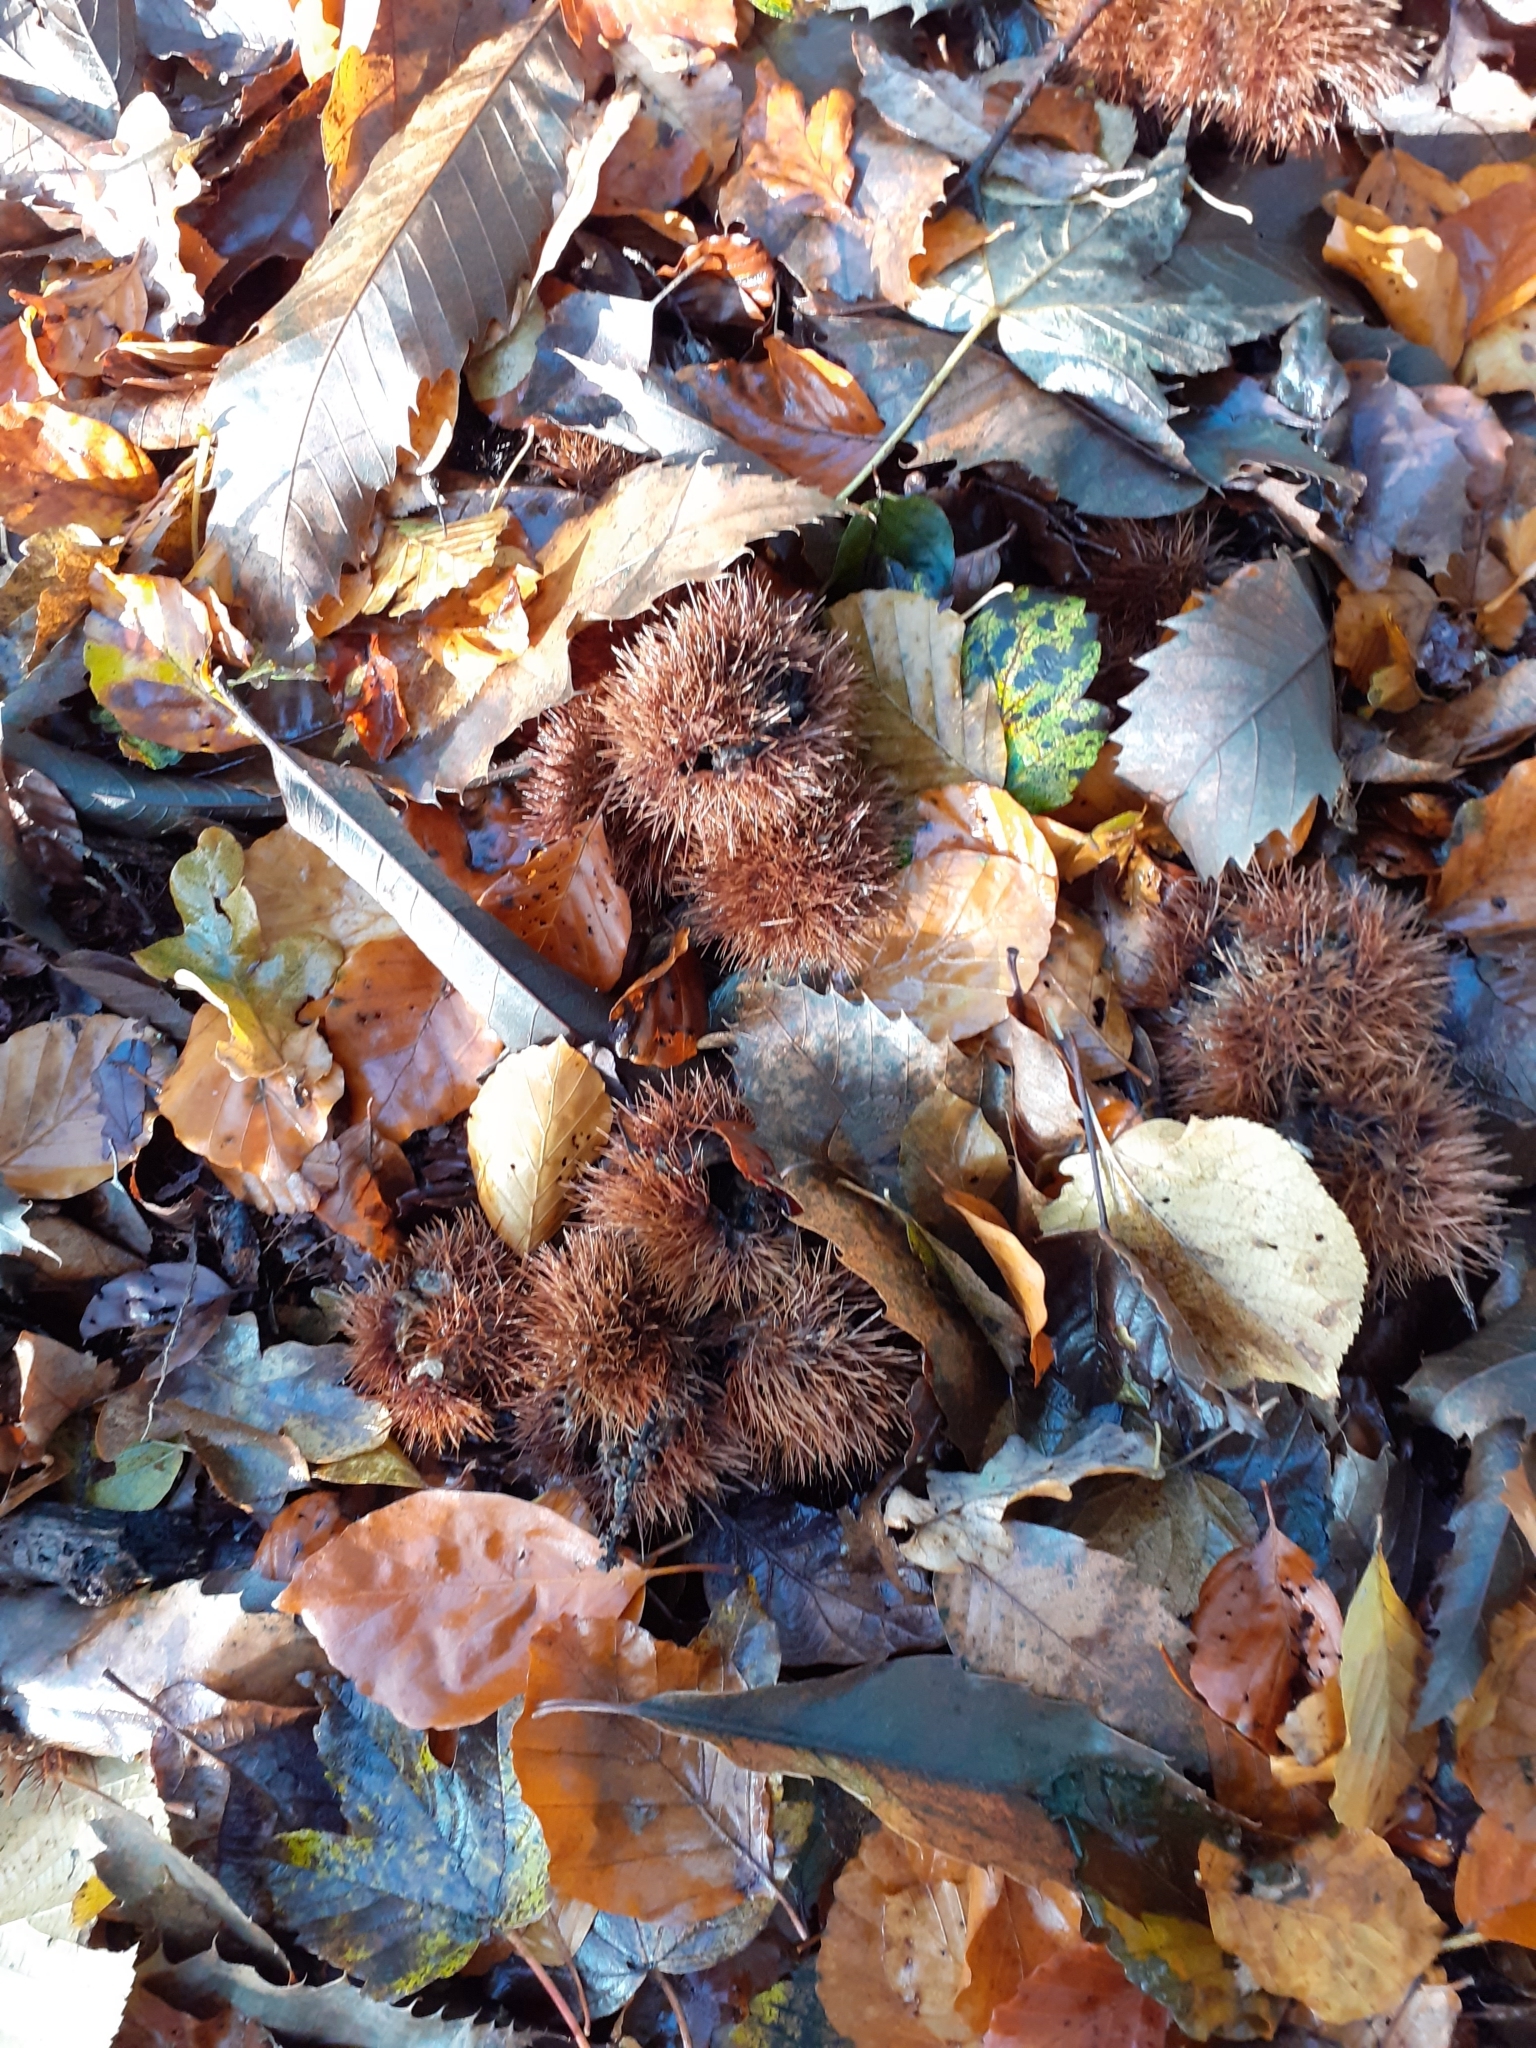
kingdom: Plantae
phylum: Tracheophyta
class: Magnoliopsida
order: Fagales
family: Fagaceae
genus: Castanea
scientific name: Castanea sativa
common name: Sweet chestnut
